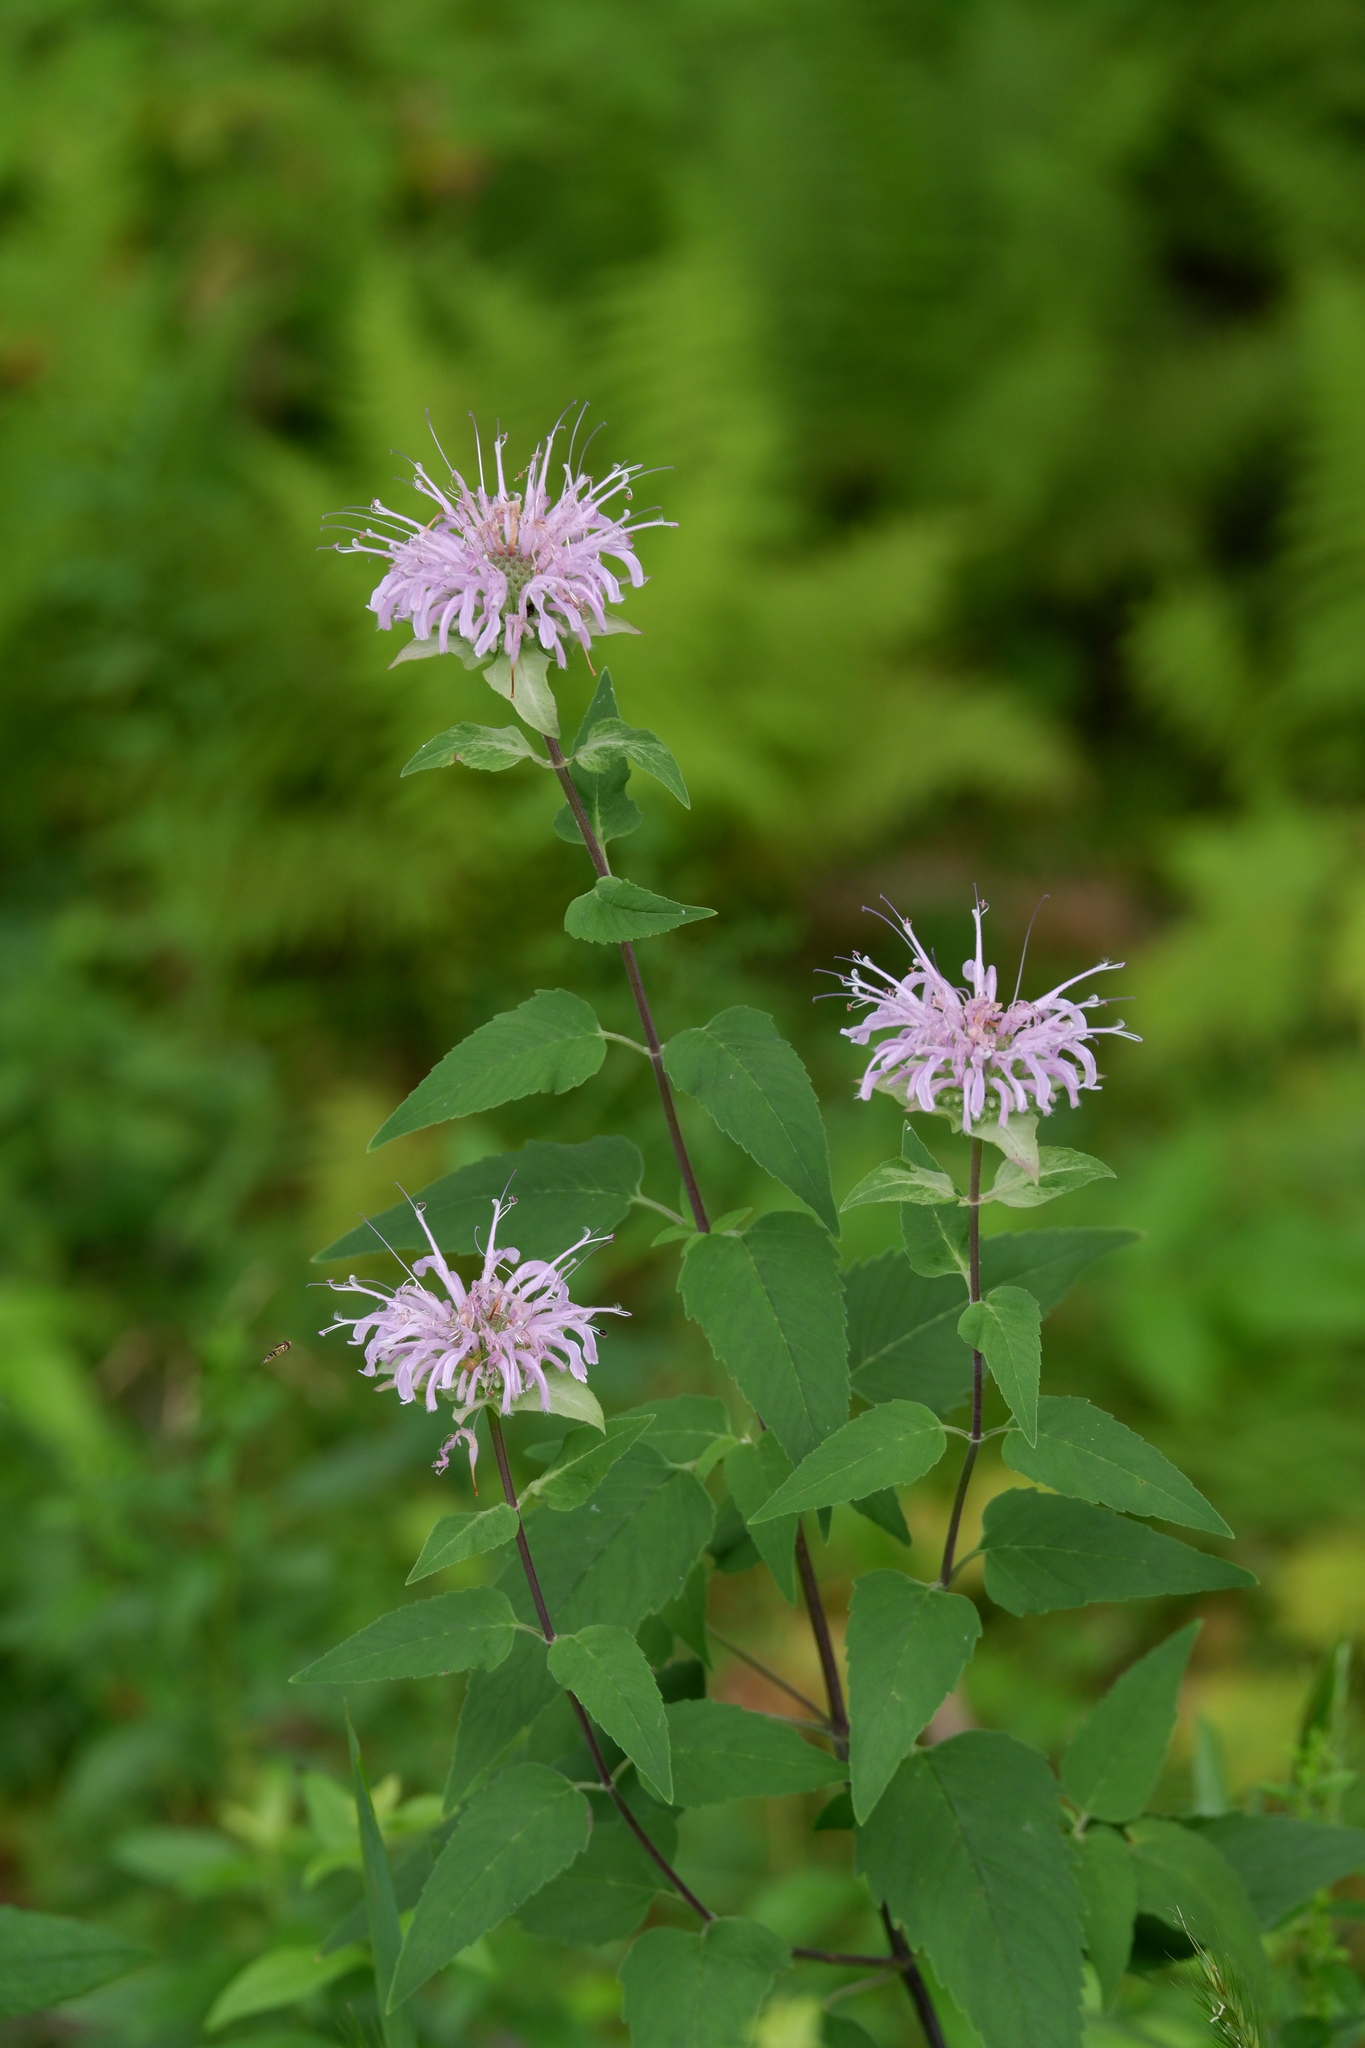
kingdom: Plantae
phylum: Tracheophyta
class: Magnoliopsida
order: Lamiales
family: Lamiaceae
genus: Monarda
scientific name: Monarda fistulosa
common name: Purple beebalm
